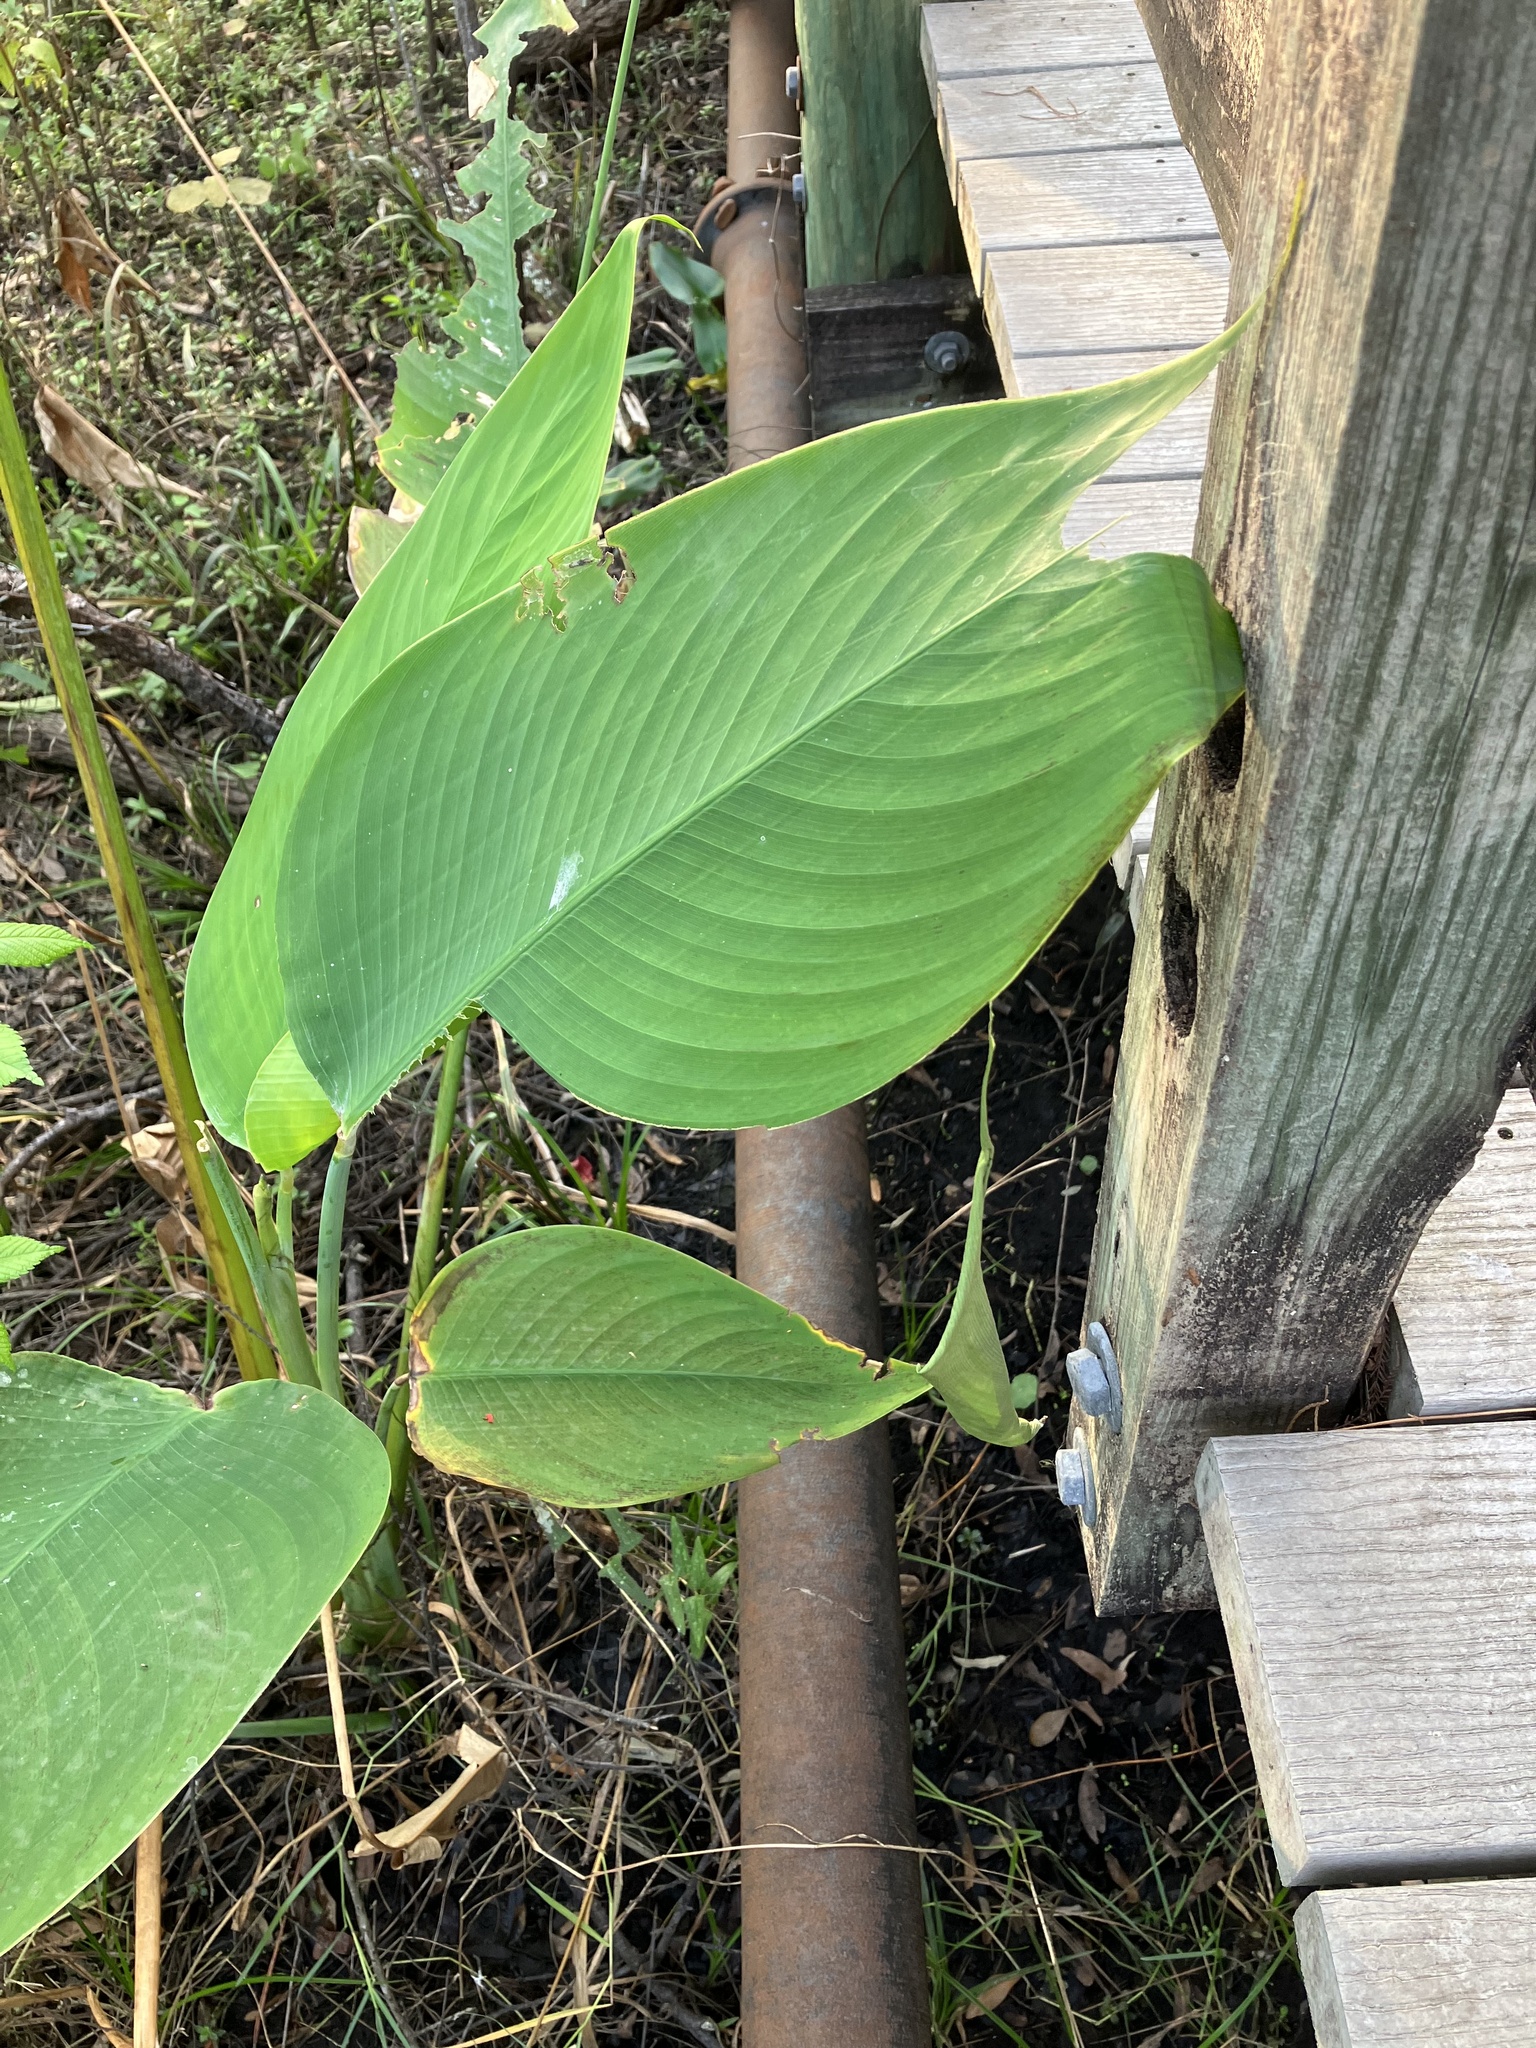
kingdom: Plantae
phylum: Tracheophyta
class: Liliopsida
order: Zingiberales
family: Marantaceae
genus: Thalia
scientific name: Thalia geniculata
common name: Arrowroot
